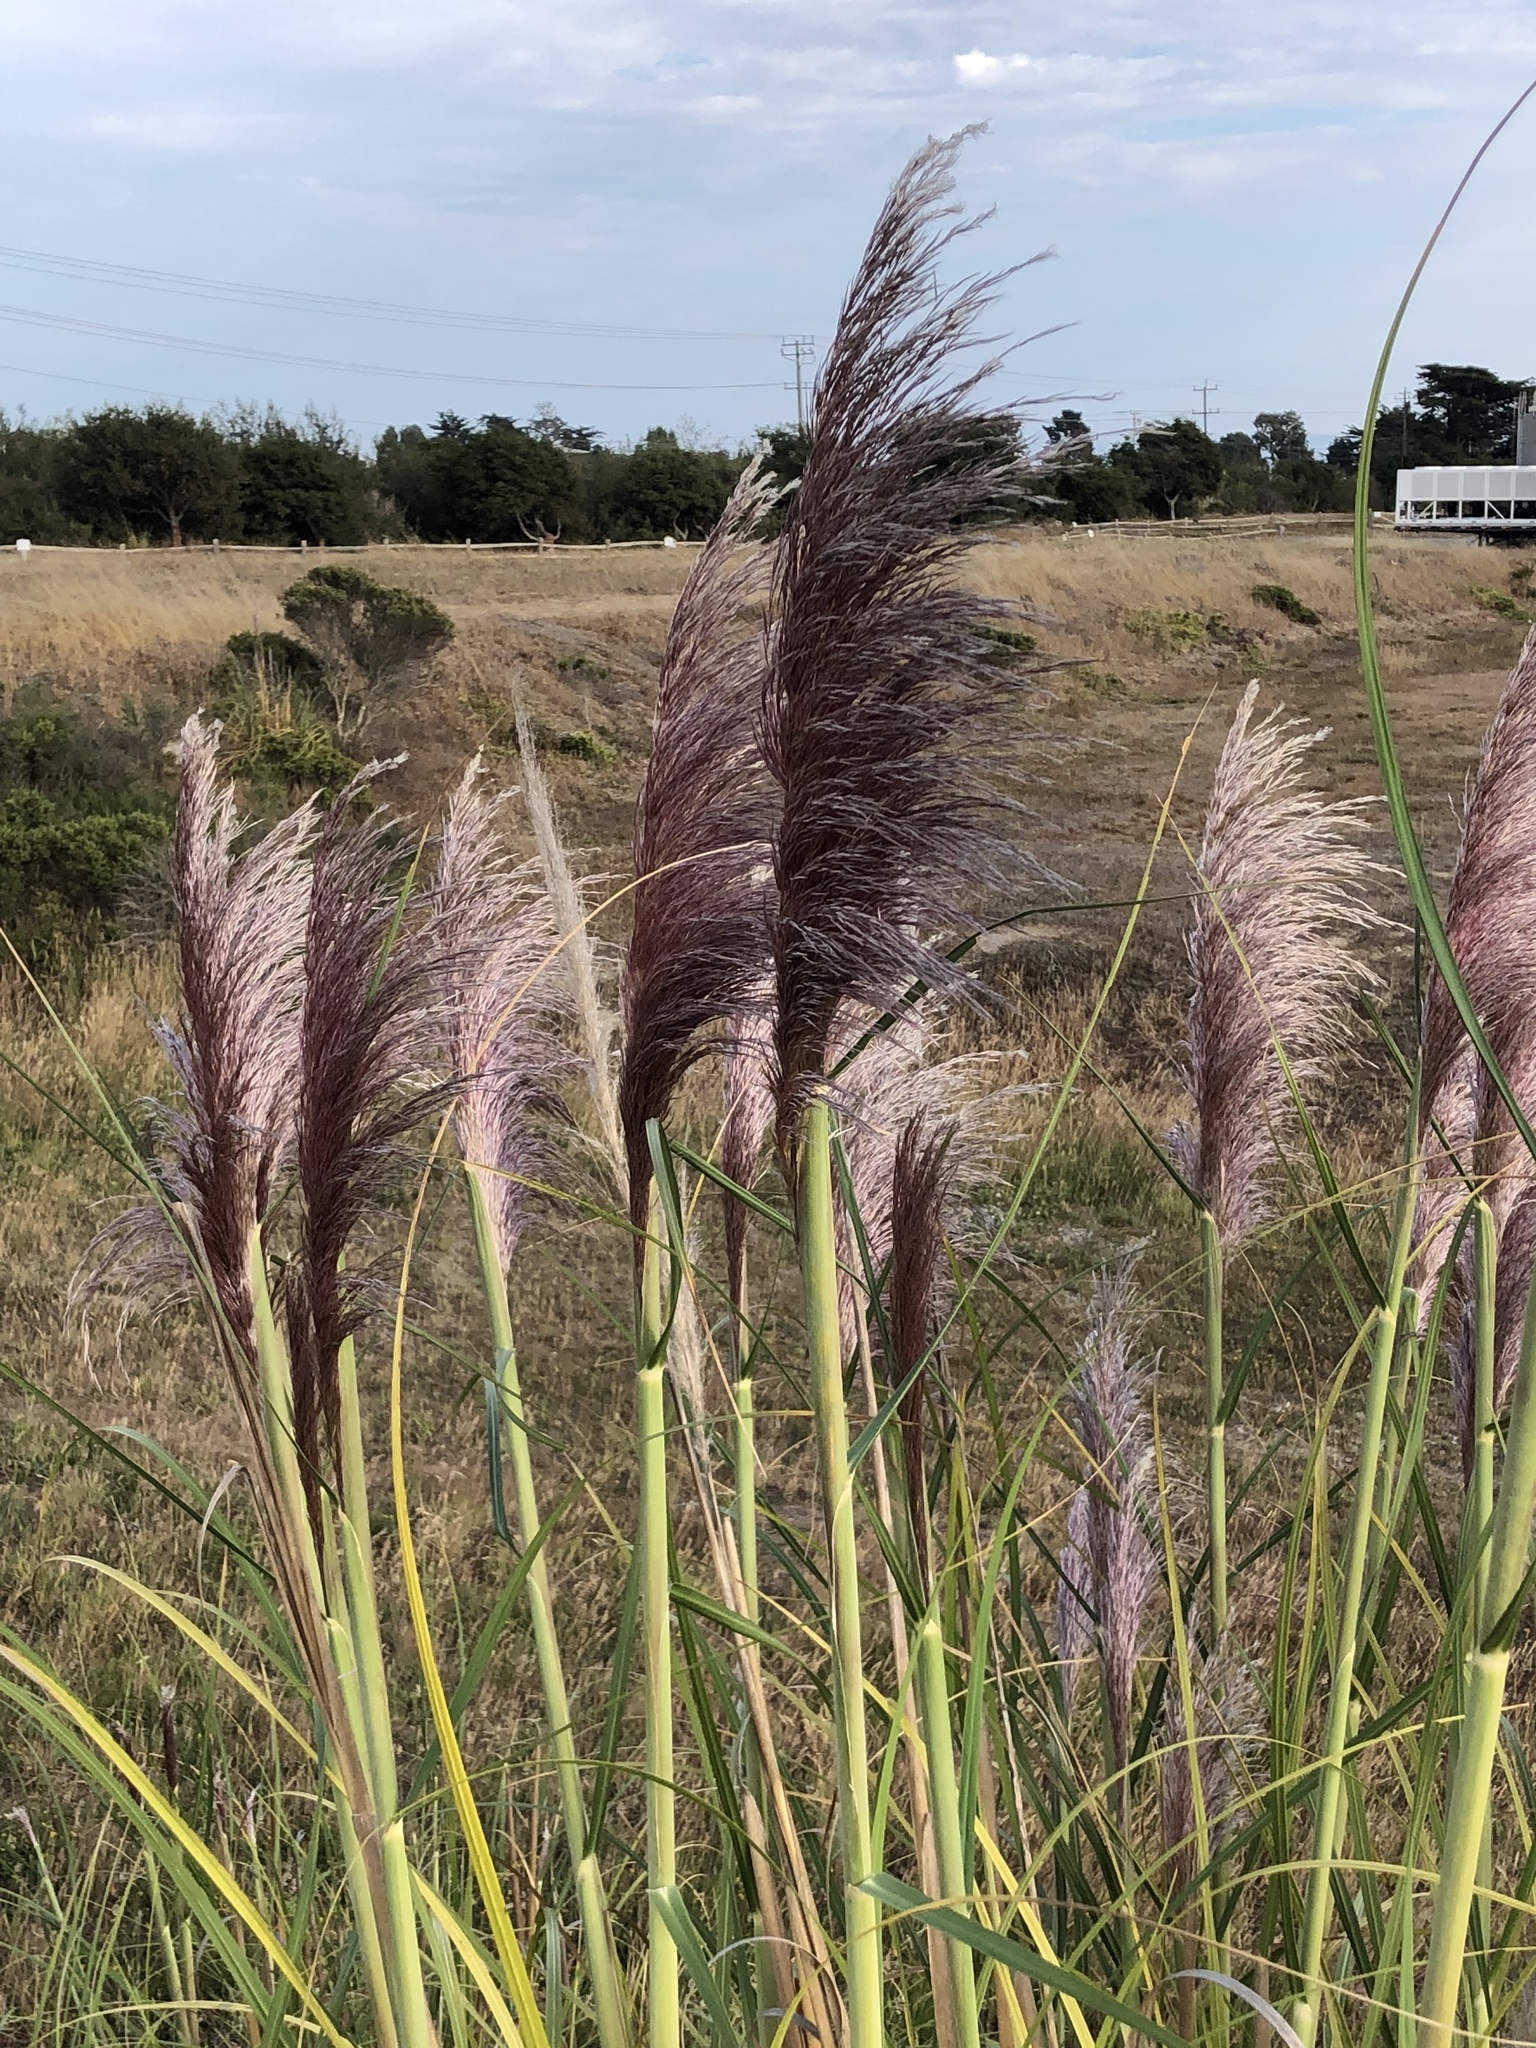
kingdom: Plantae
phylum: Tracheophyta
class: Liliopsida
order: Poales
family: Poaceae
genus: Cortaderia
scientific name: Cortaderia jubata
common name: Purple pampas grass
